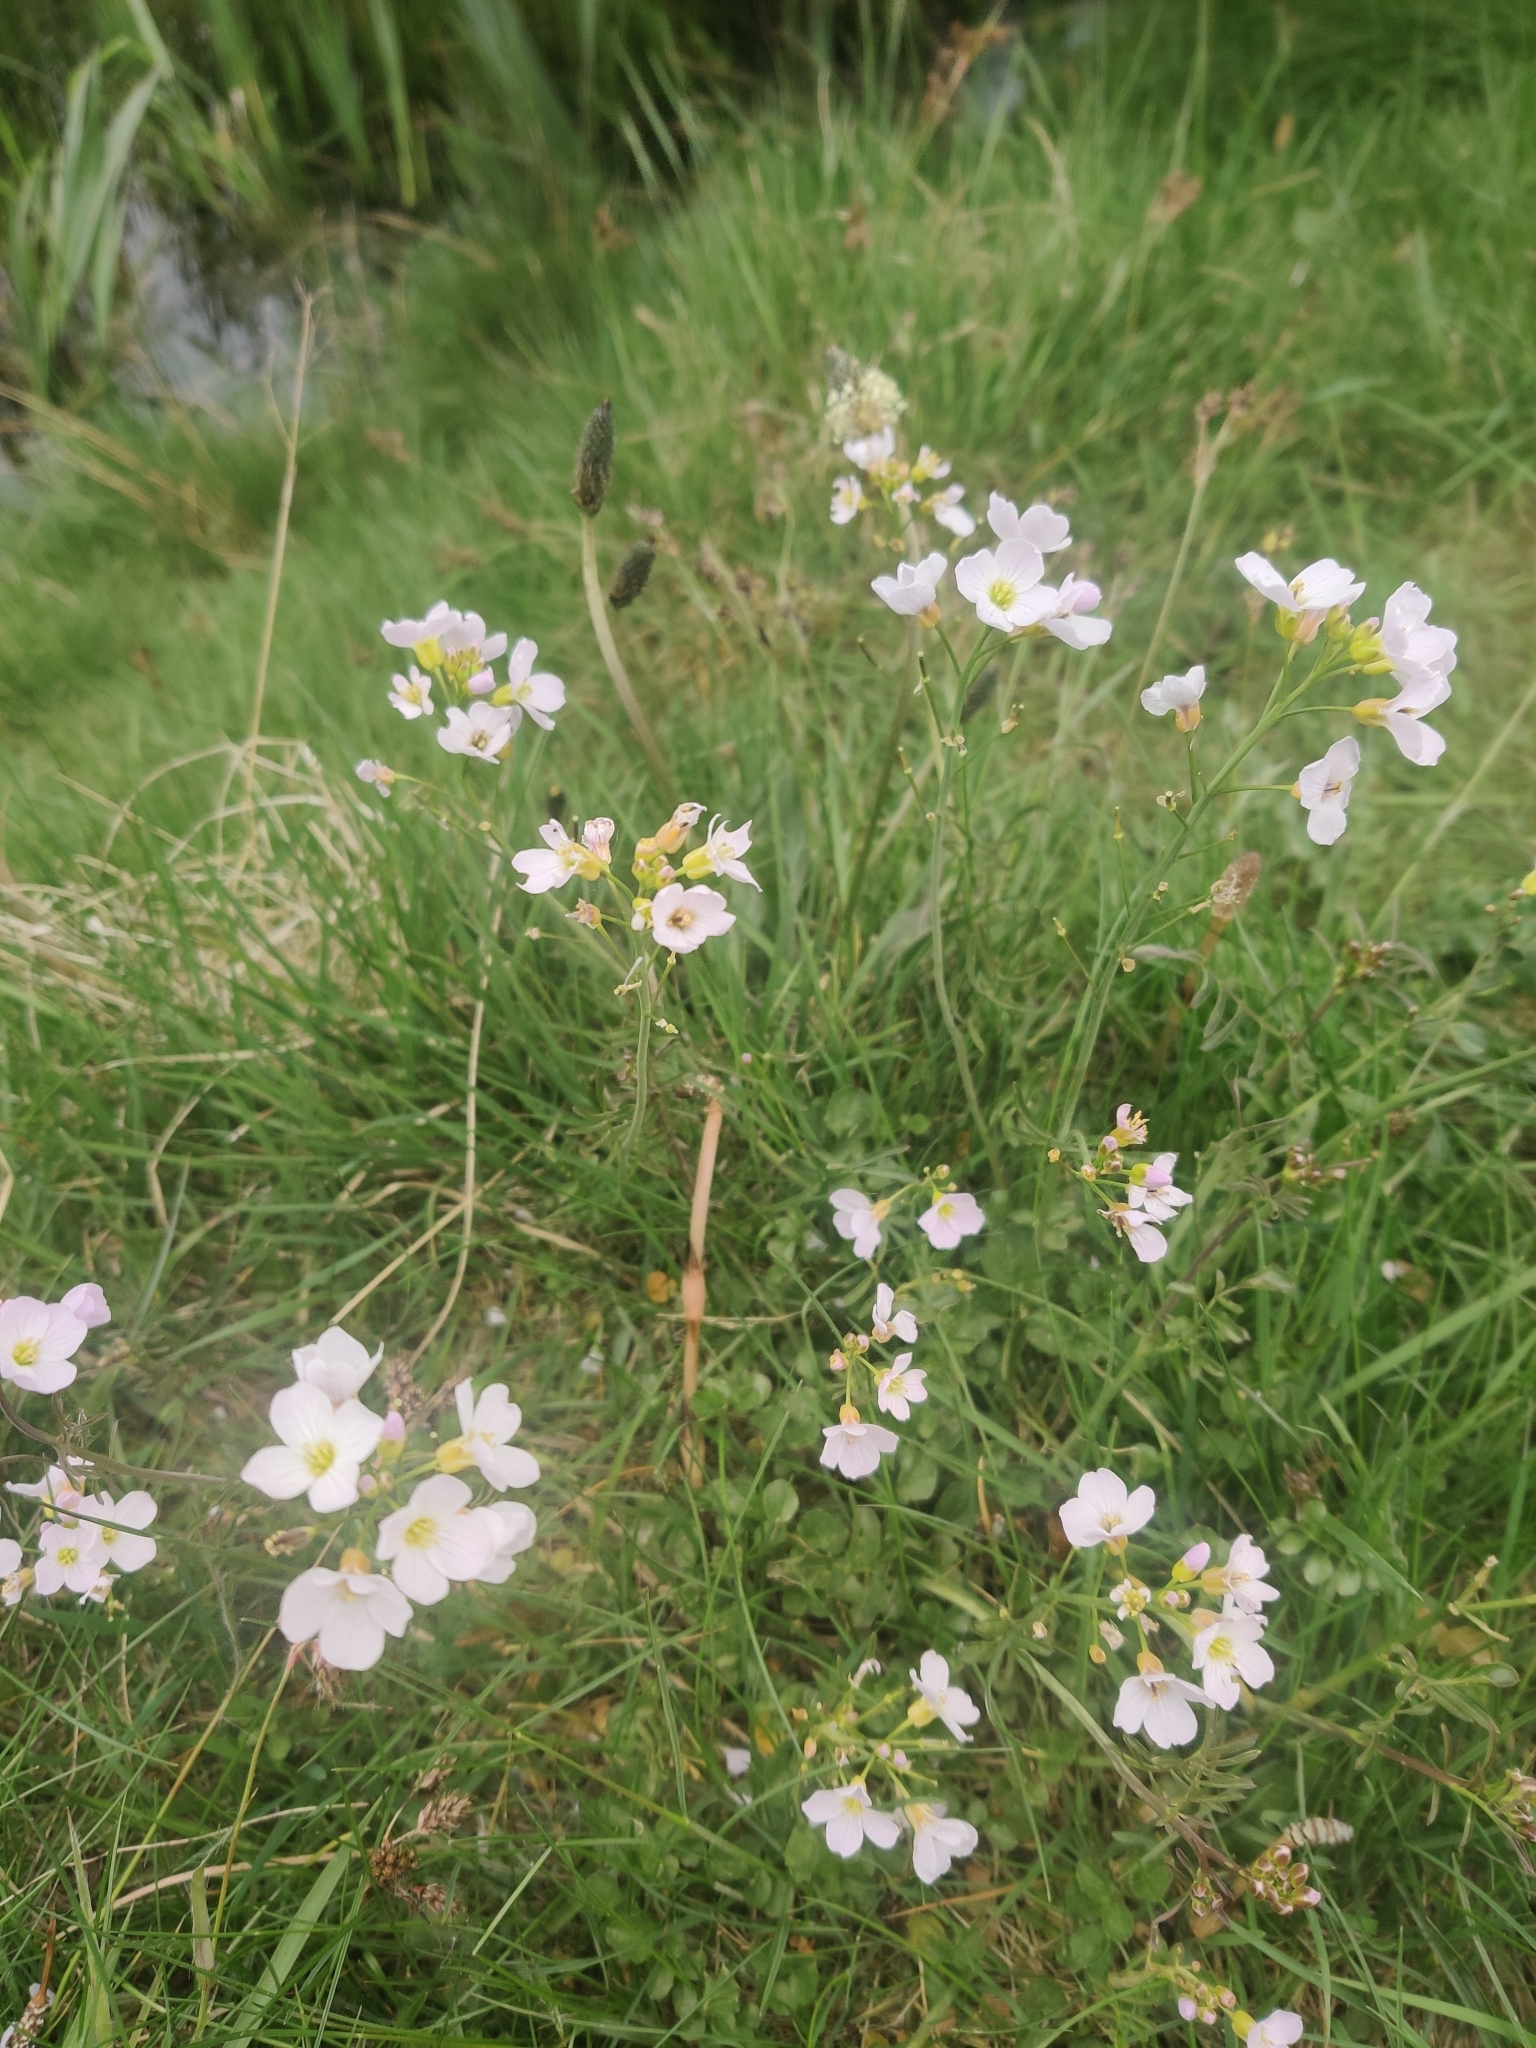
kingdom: Plantae
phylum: Tracheophyta
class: Magnoliopsida
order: Brassicales
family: Brassicaceae
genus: Cardamine
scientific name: Cardamine pratensis
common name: Cuckoo flower
